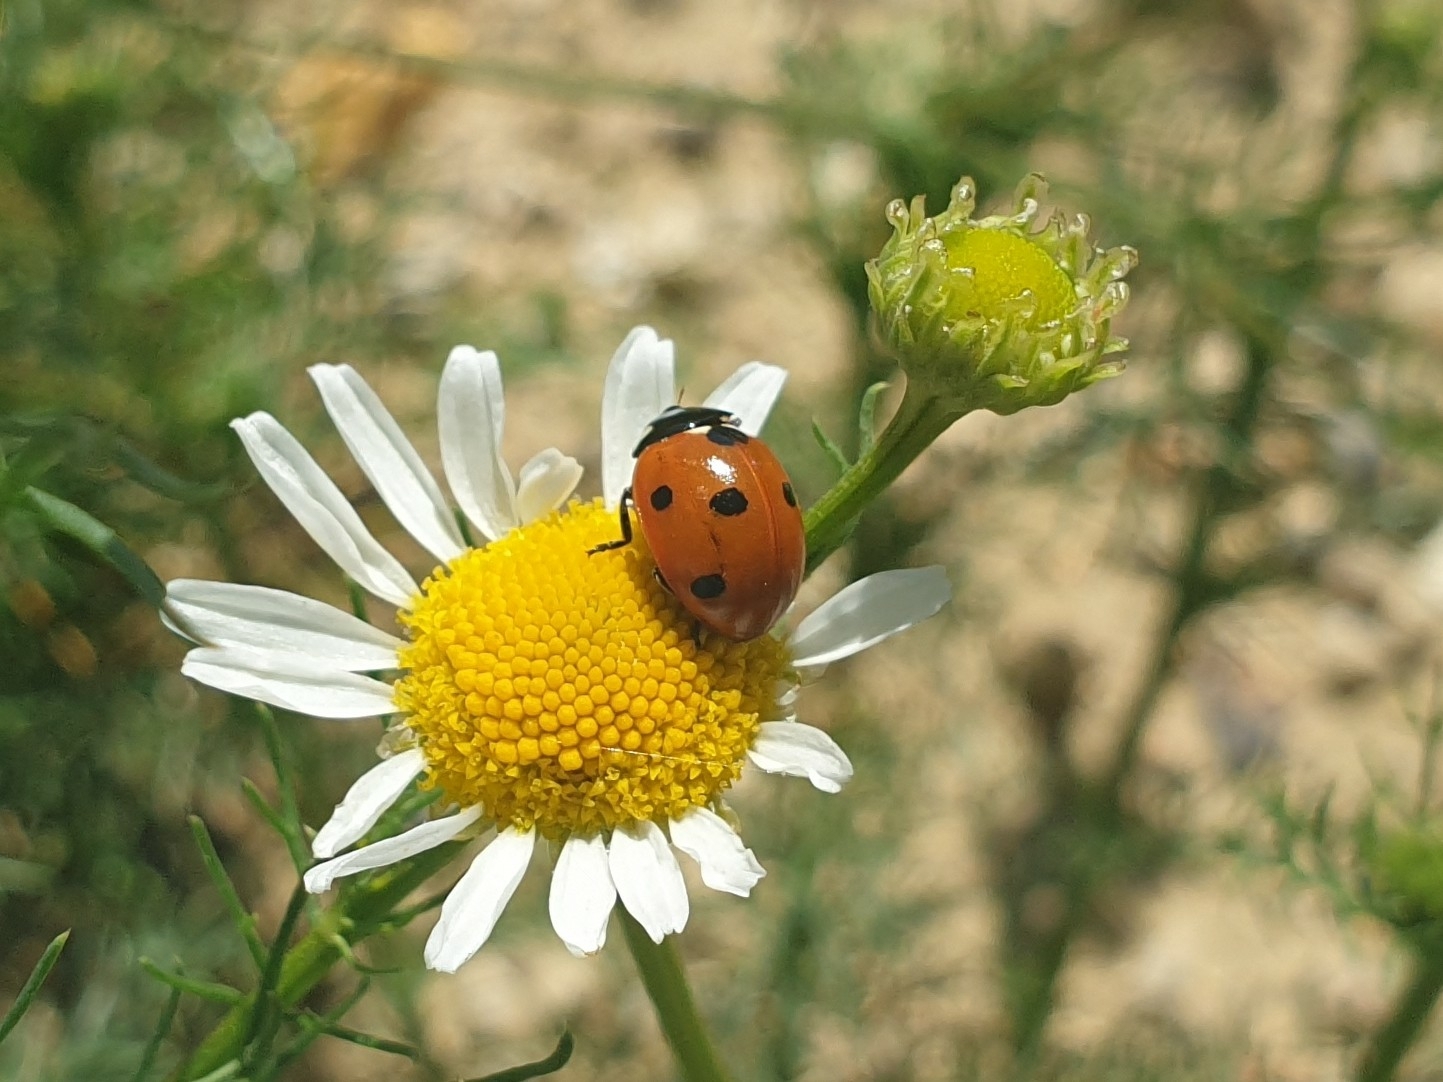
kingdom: Animalia
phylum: Arthropoda
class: Insecta
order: Coleoptera
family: Coccinellidae
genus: Coccinella
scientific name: Coccinella septempunctata
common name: Sevenspotted lady beetle
